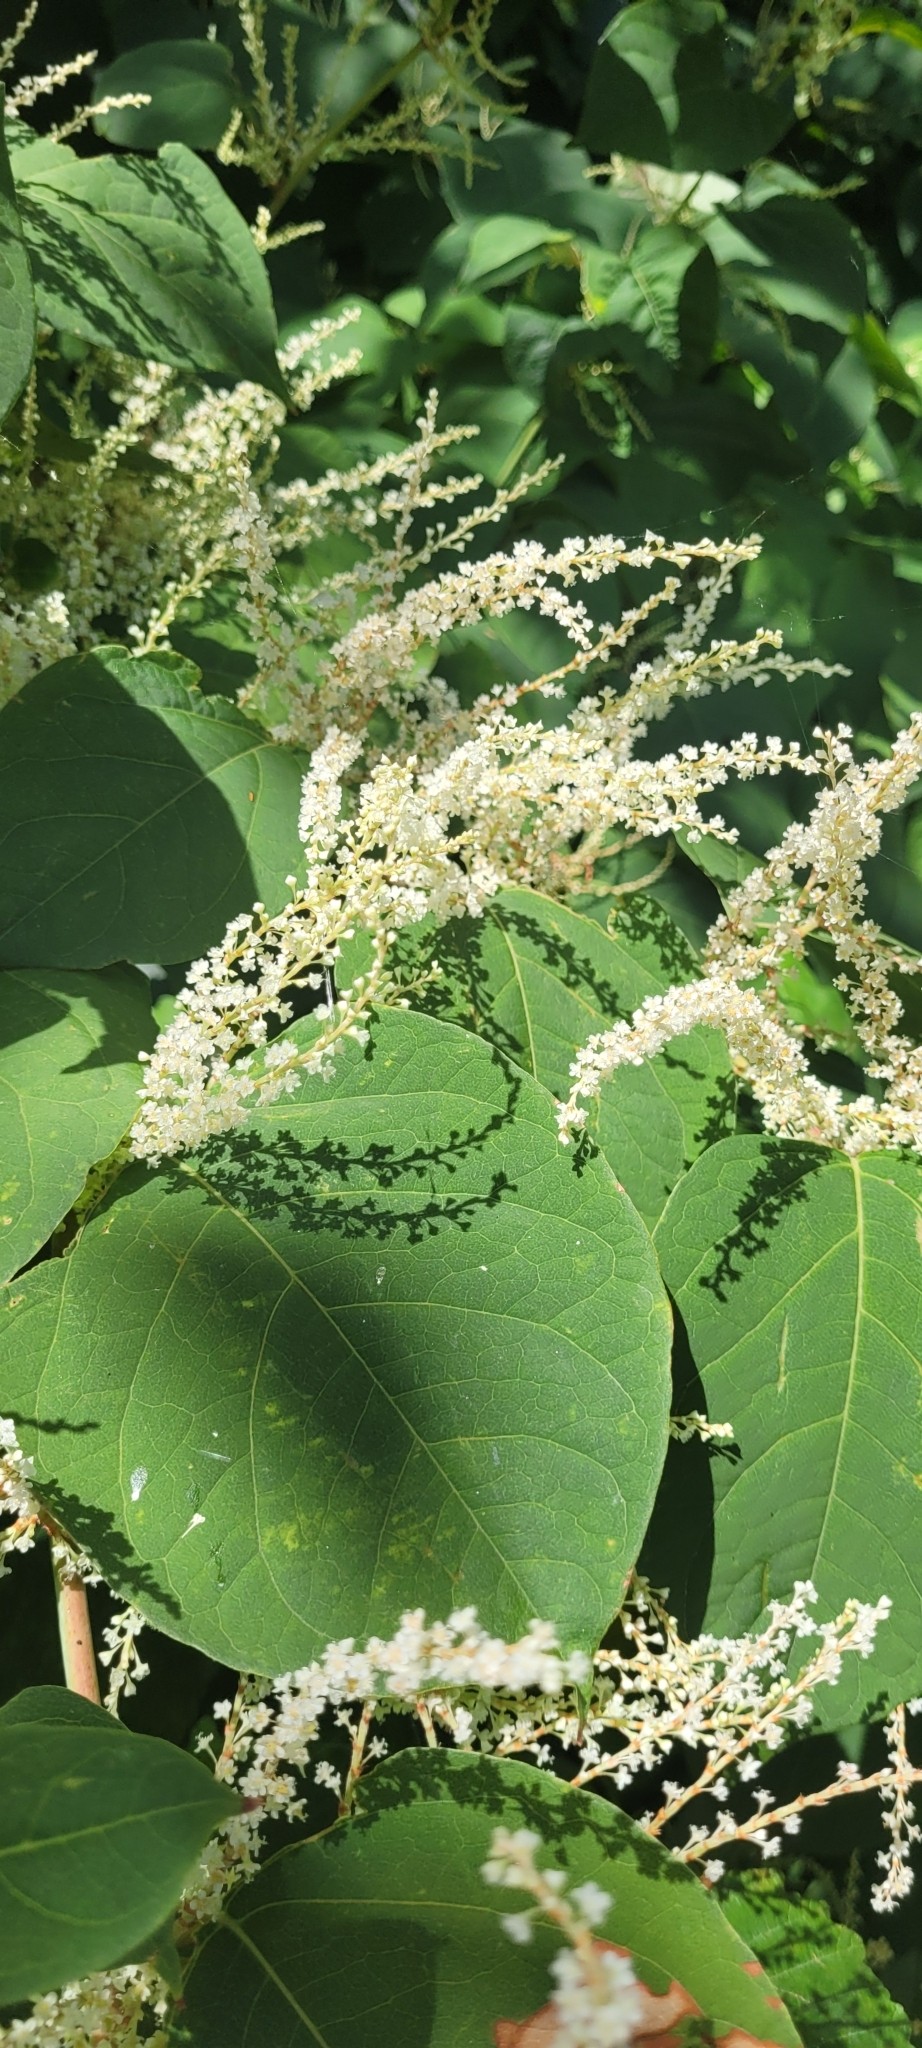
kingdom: Plantae
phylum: Tracheophyta
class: Magnoliopsida
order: Caryophyllales
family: Polygonaceae
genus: Reynoutria
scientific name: Reynoutria japonica
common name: Japanese knotweed
